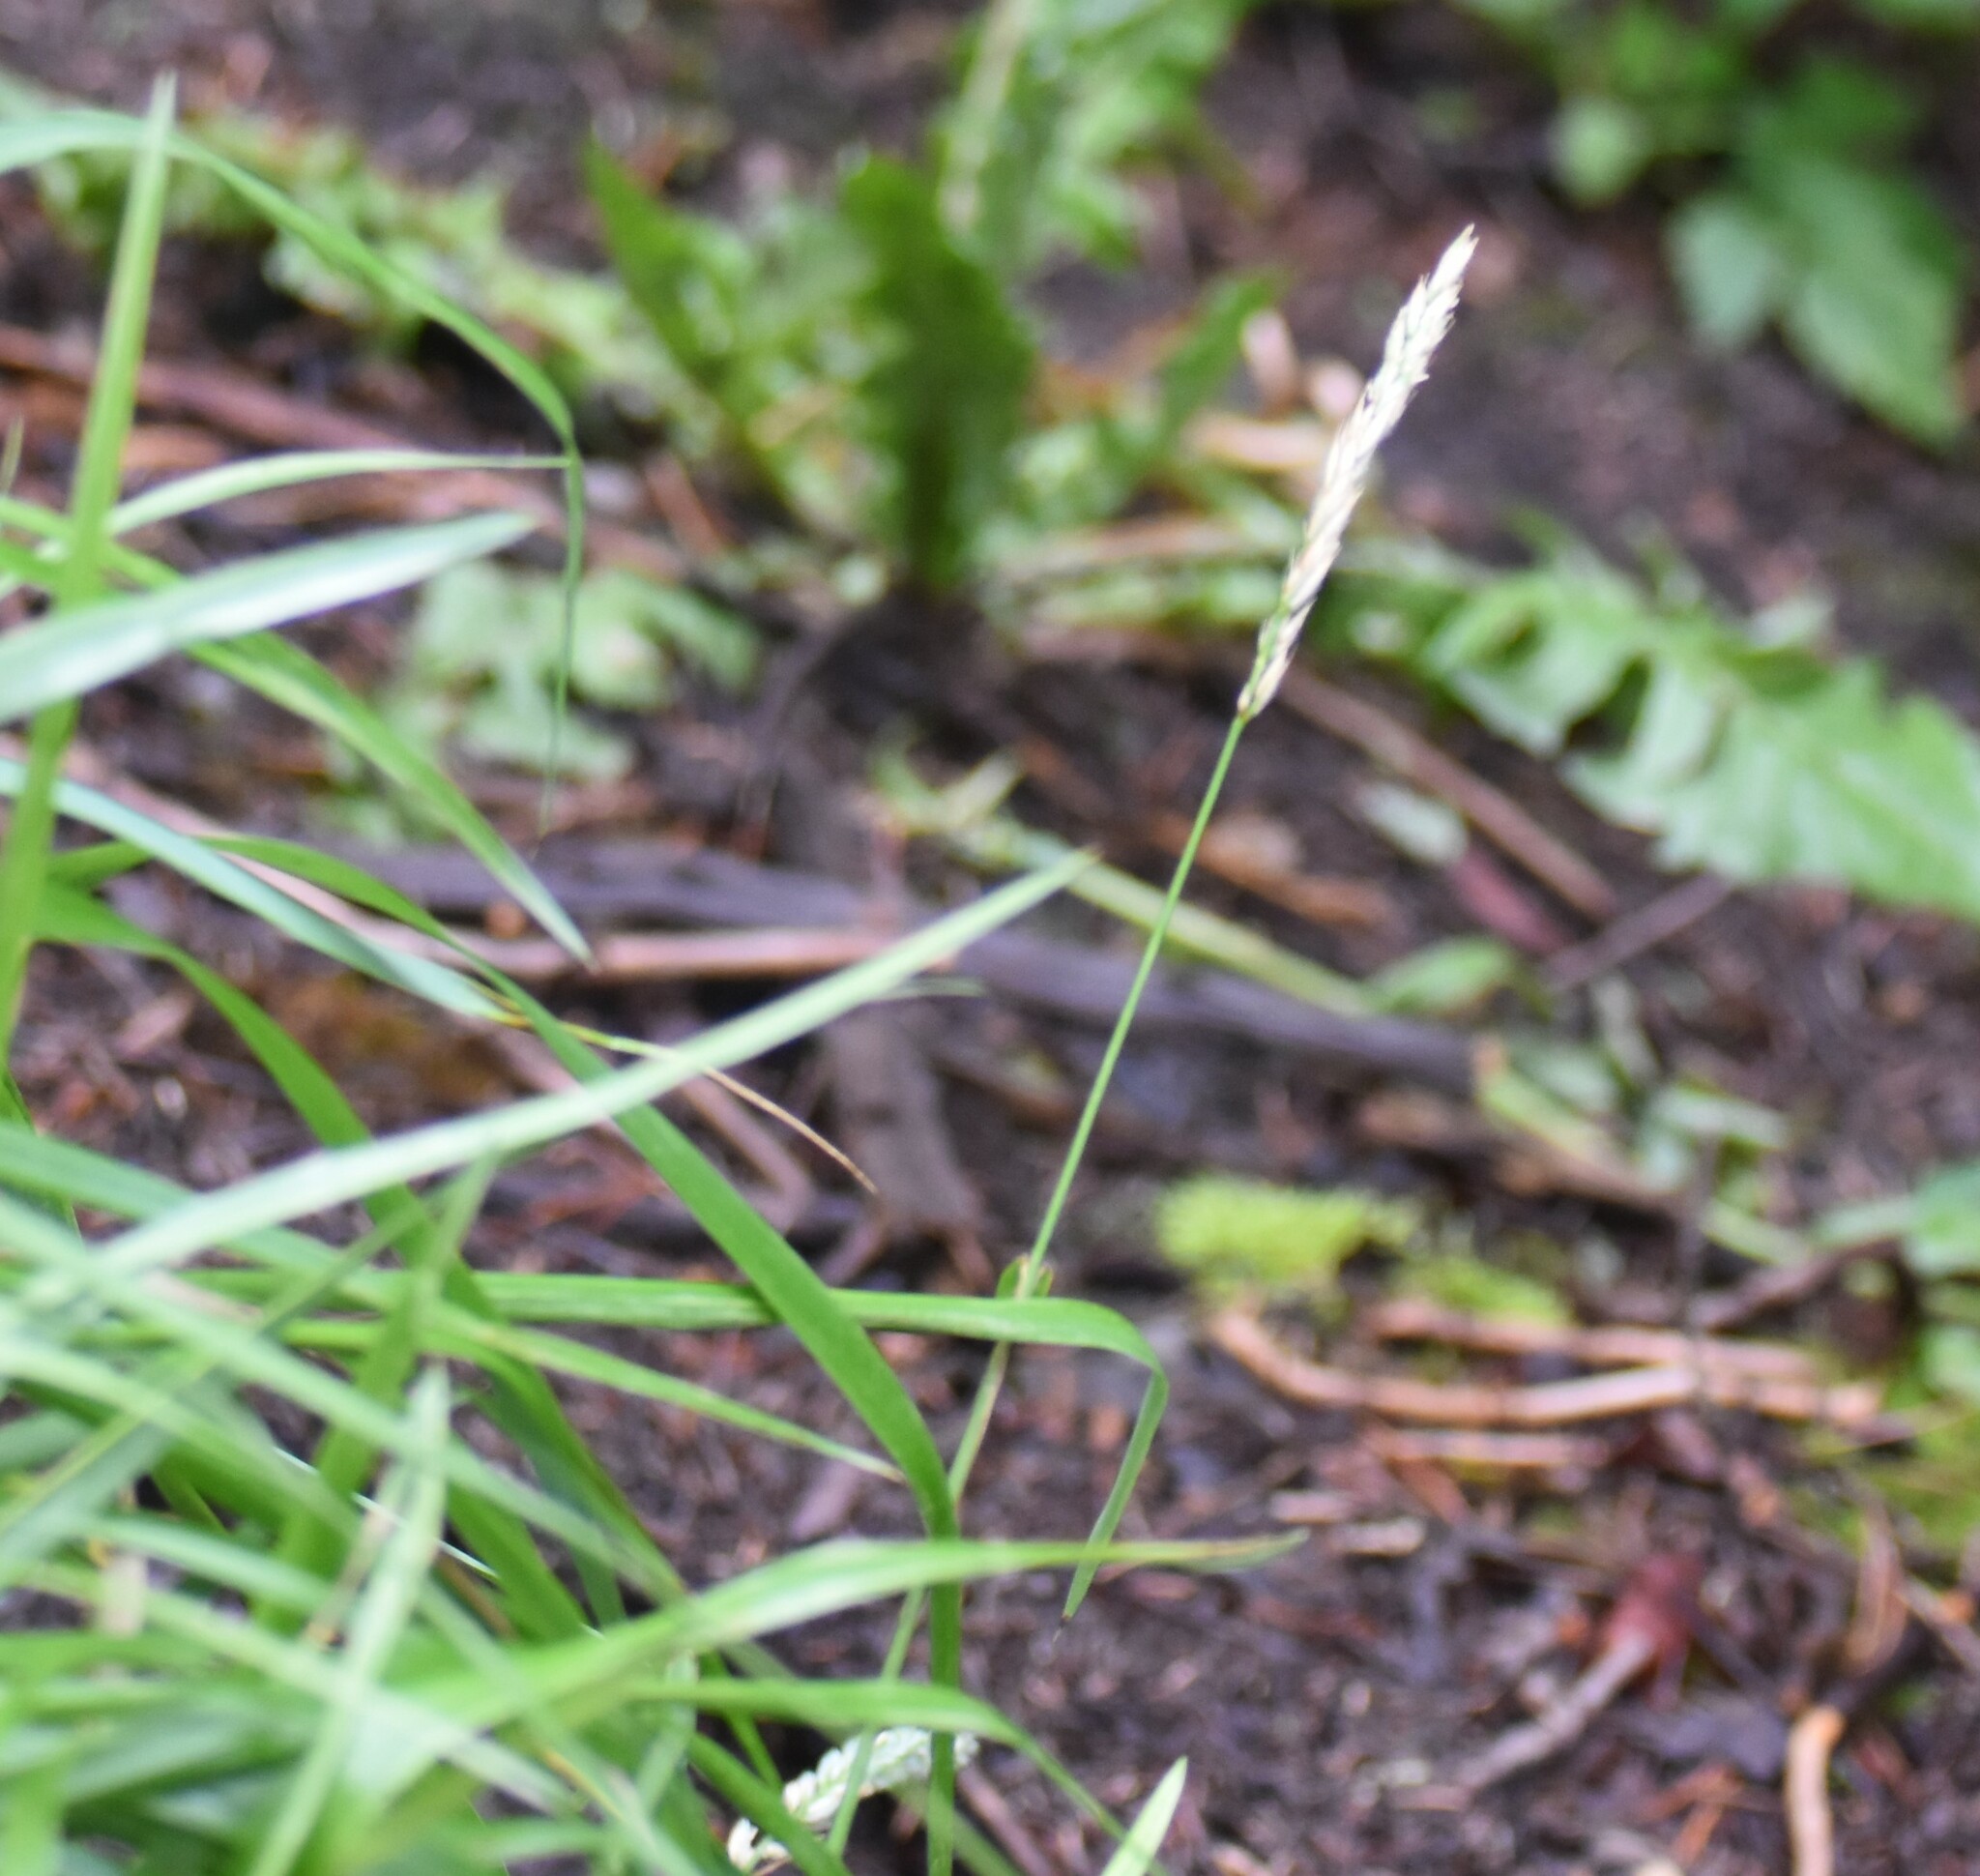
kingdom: Plantae
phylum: Tracheophyta
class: Liliopsida
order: Poales
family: Poaceae
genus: Leymus
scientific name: Leymus innovatus
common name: Boreal wild rye
